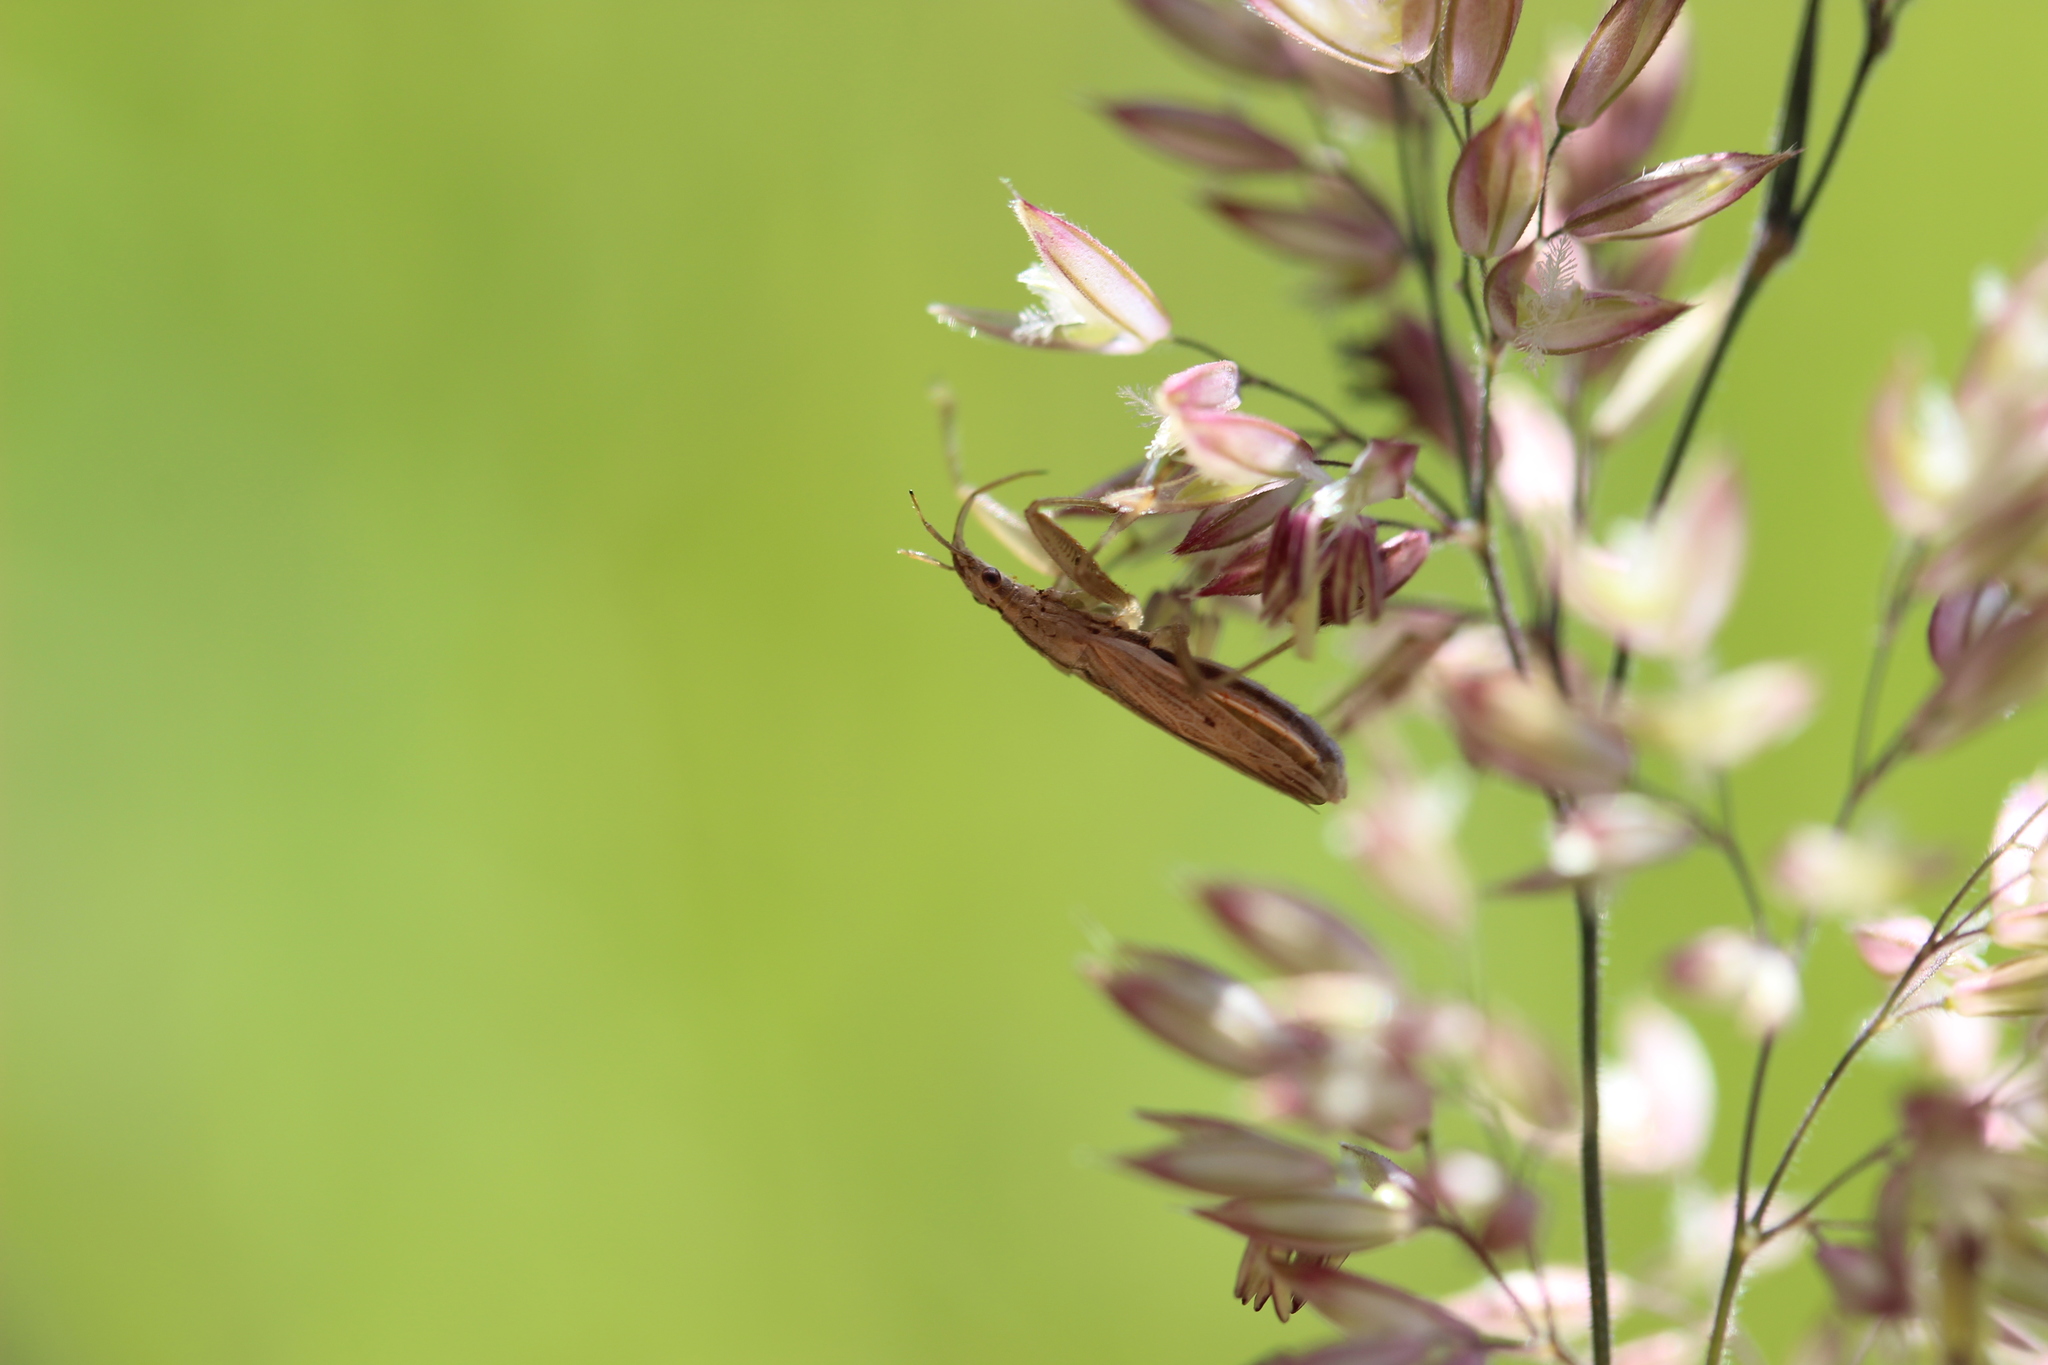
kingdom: Animalia
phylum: Arthropoda
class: Insecta
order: Hemiptera
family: Nabidae
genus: Nabis
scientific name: Nabis
